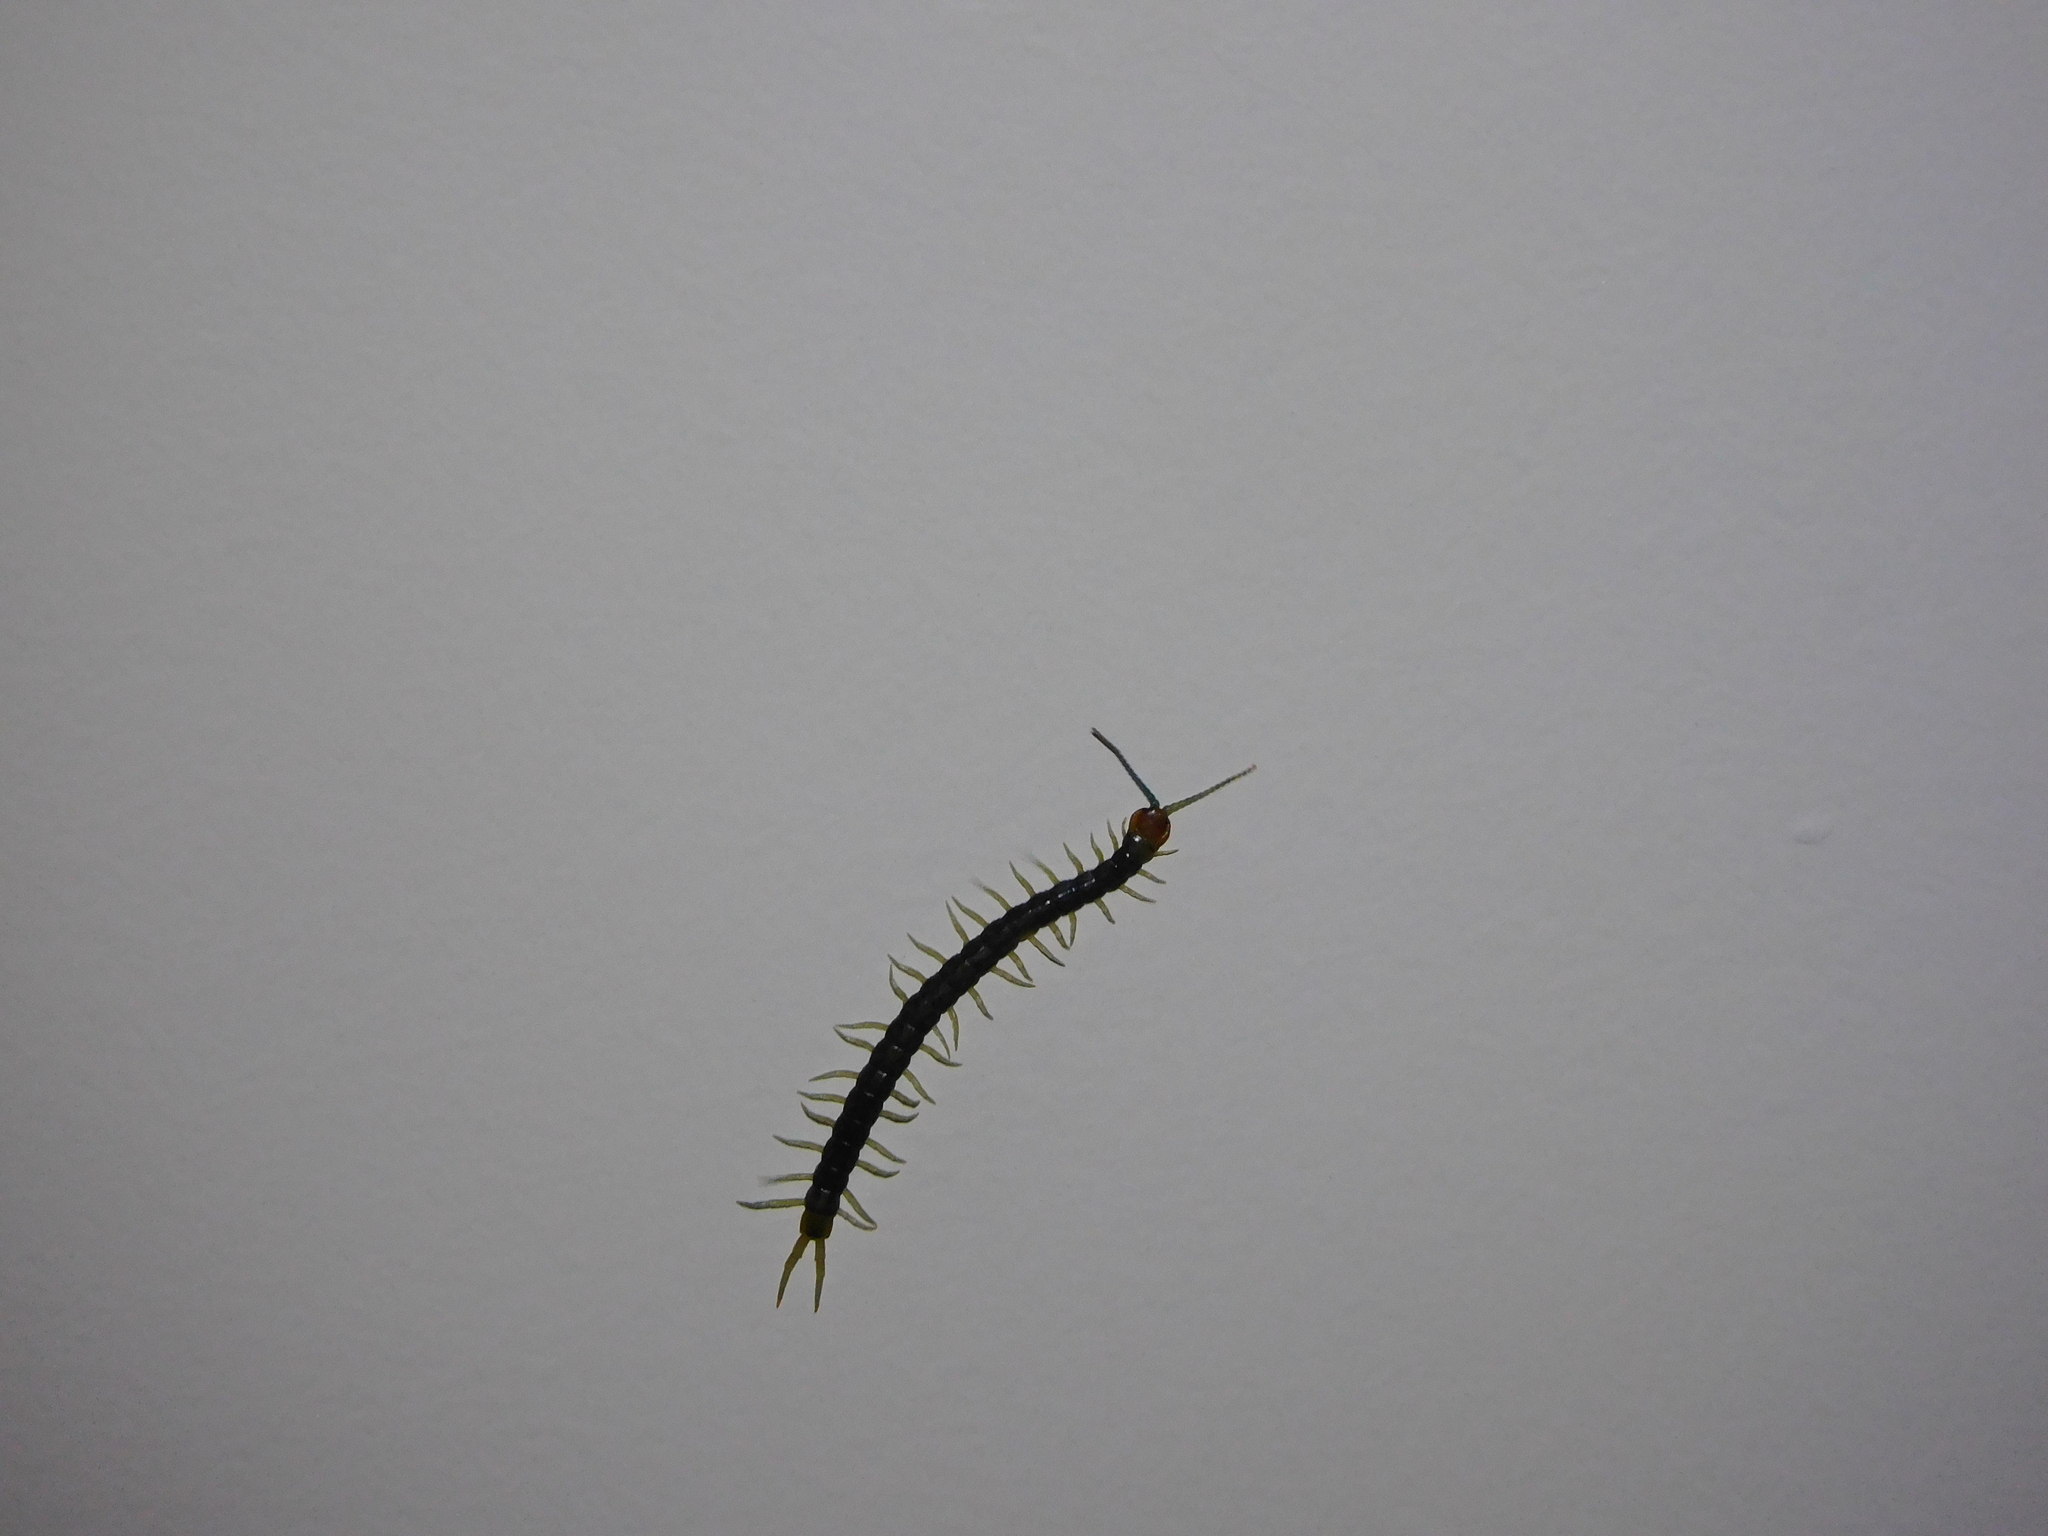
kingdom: Animalia
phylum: Arthropoda
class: Chilopoda
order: Scolopendromorpha
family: Scolopendridae
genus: Cormocephalus
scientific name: Cormocephalus westwoodi
